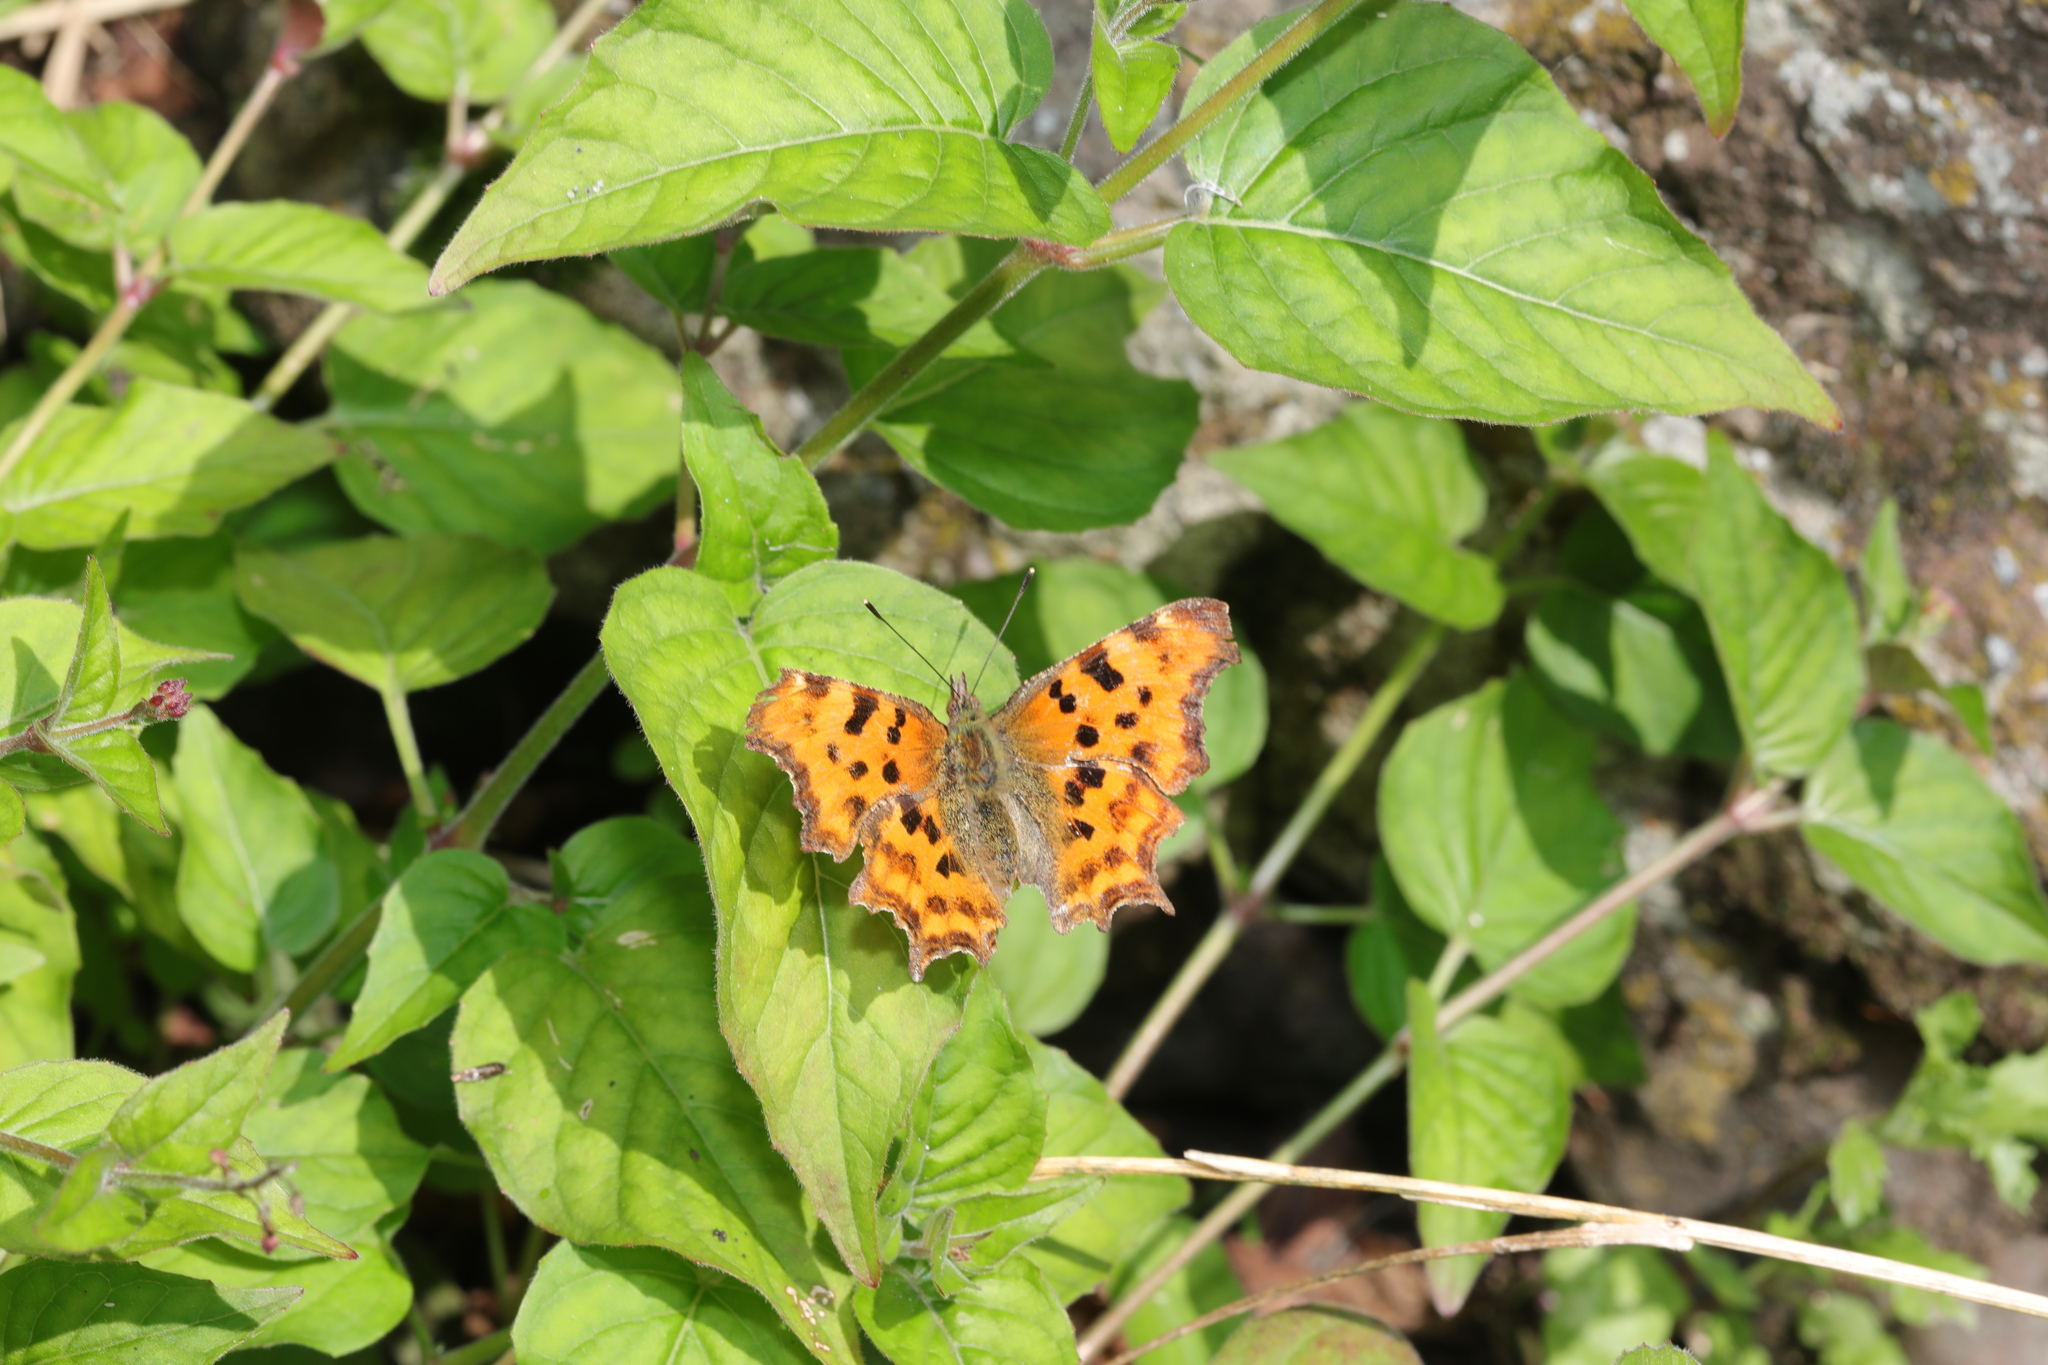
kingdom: Animalia
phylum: Arthropoda
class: Insecta
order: Lepidoptera
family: Nymphalidae
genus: Polygonia
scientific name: Polygonia c-album
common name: Comma
